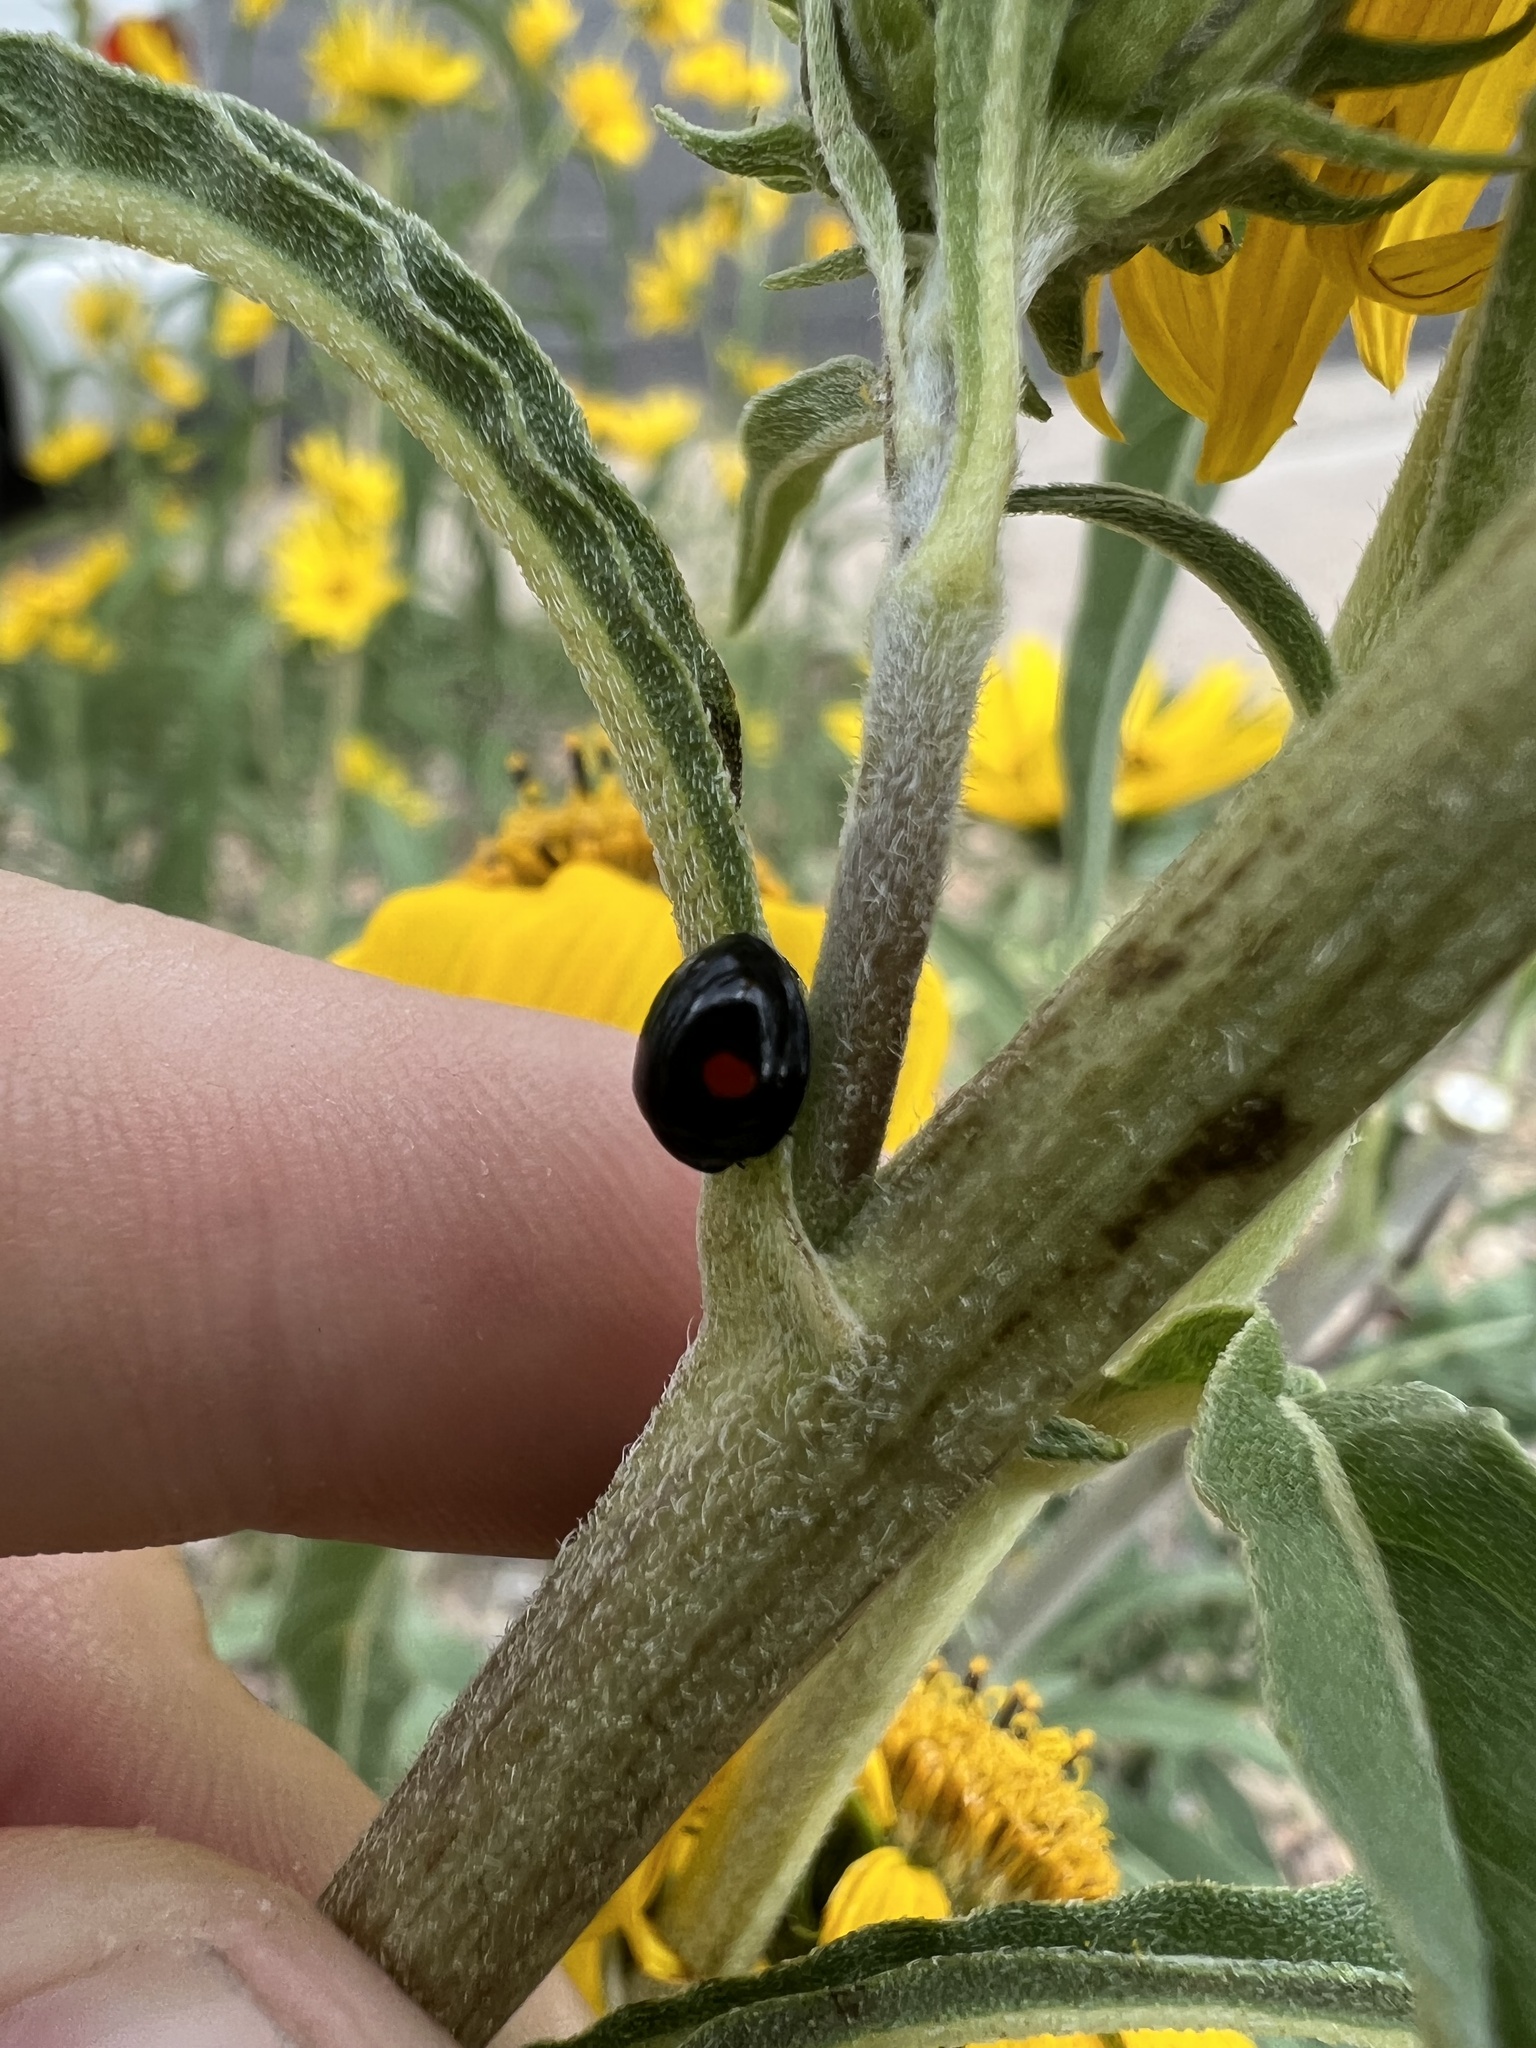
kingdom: Animalia
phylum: Arthropoda
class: Insecta
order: Coleoptera
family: Coccinellidae
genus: Chilocorus
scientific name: Chilocorus stigma
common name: Twicestabbed lady beetle
